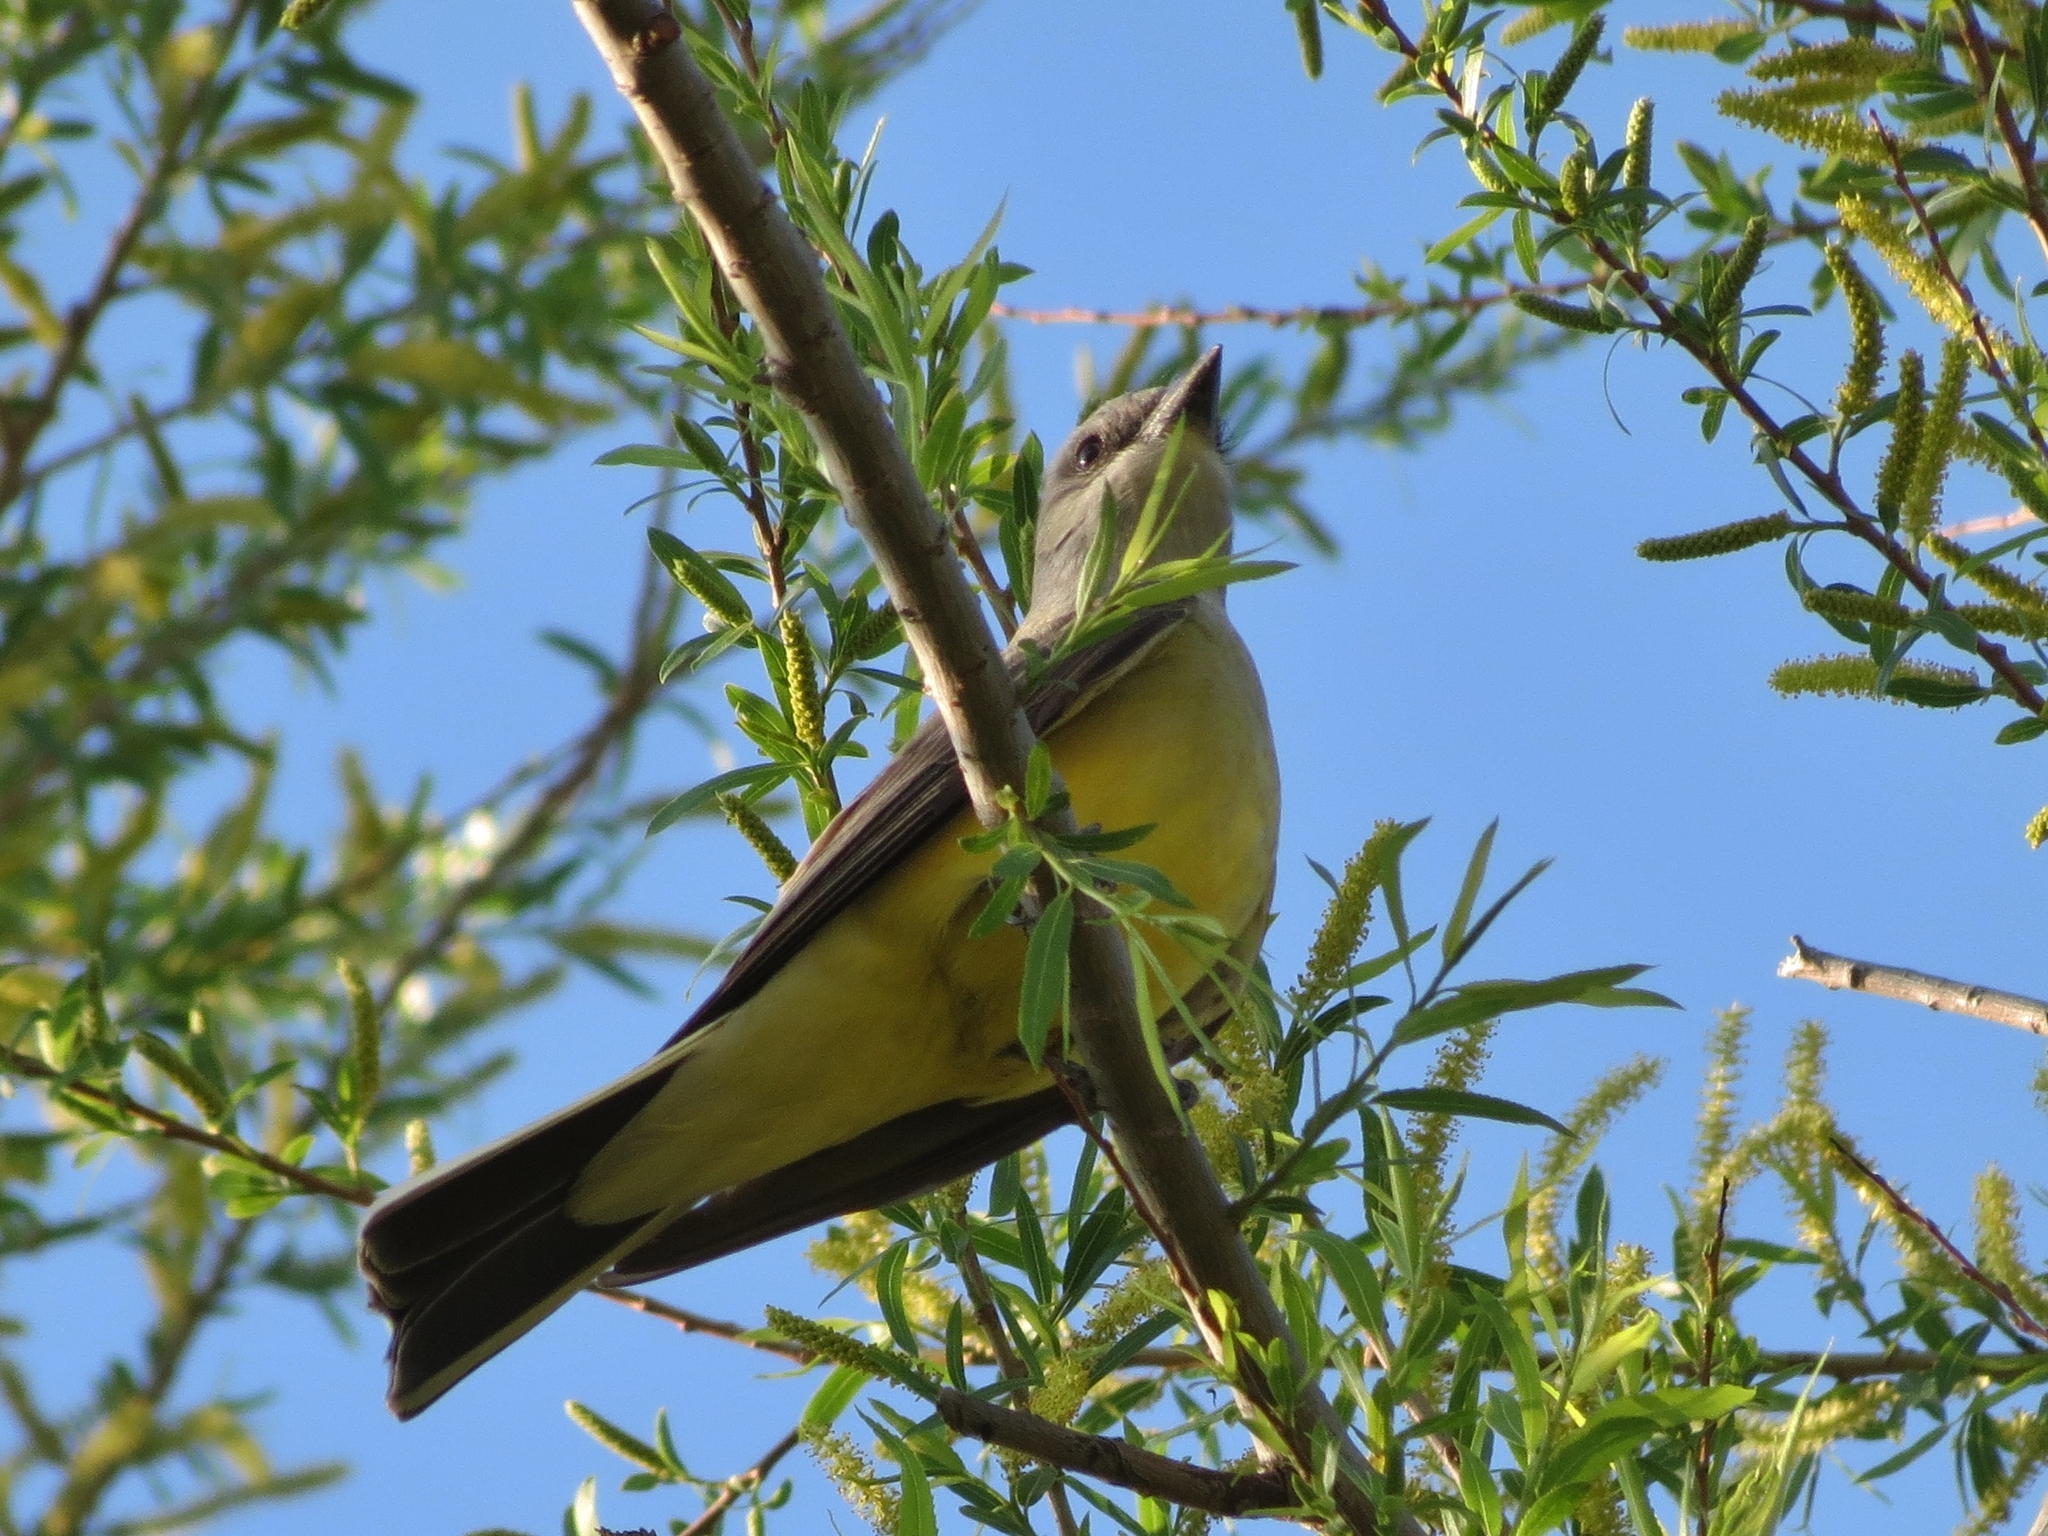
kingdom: Animalia
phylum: Chordata
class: Aves
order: Passeriformes
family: Tyrannidae
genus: Tyrannus
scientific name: Tyrannus verticalis
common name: Western kingbird
